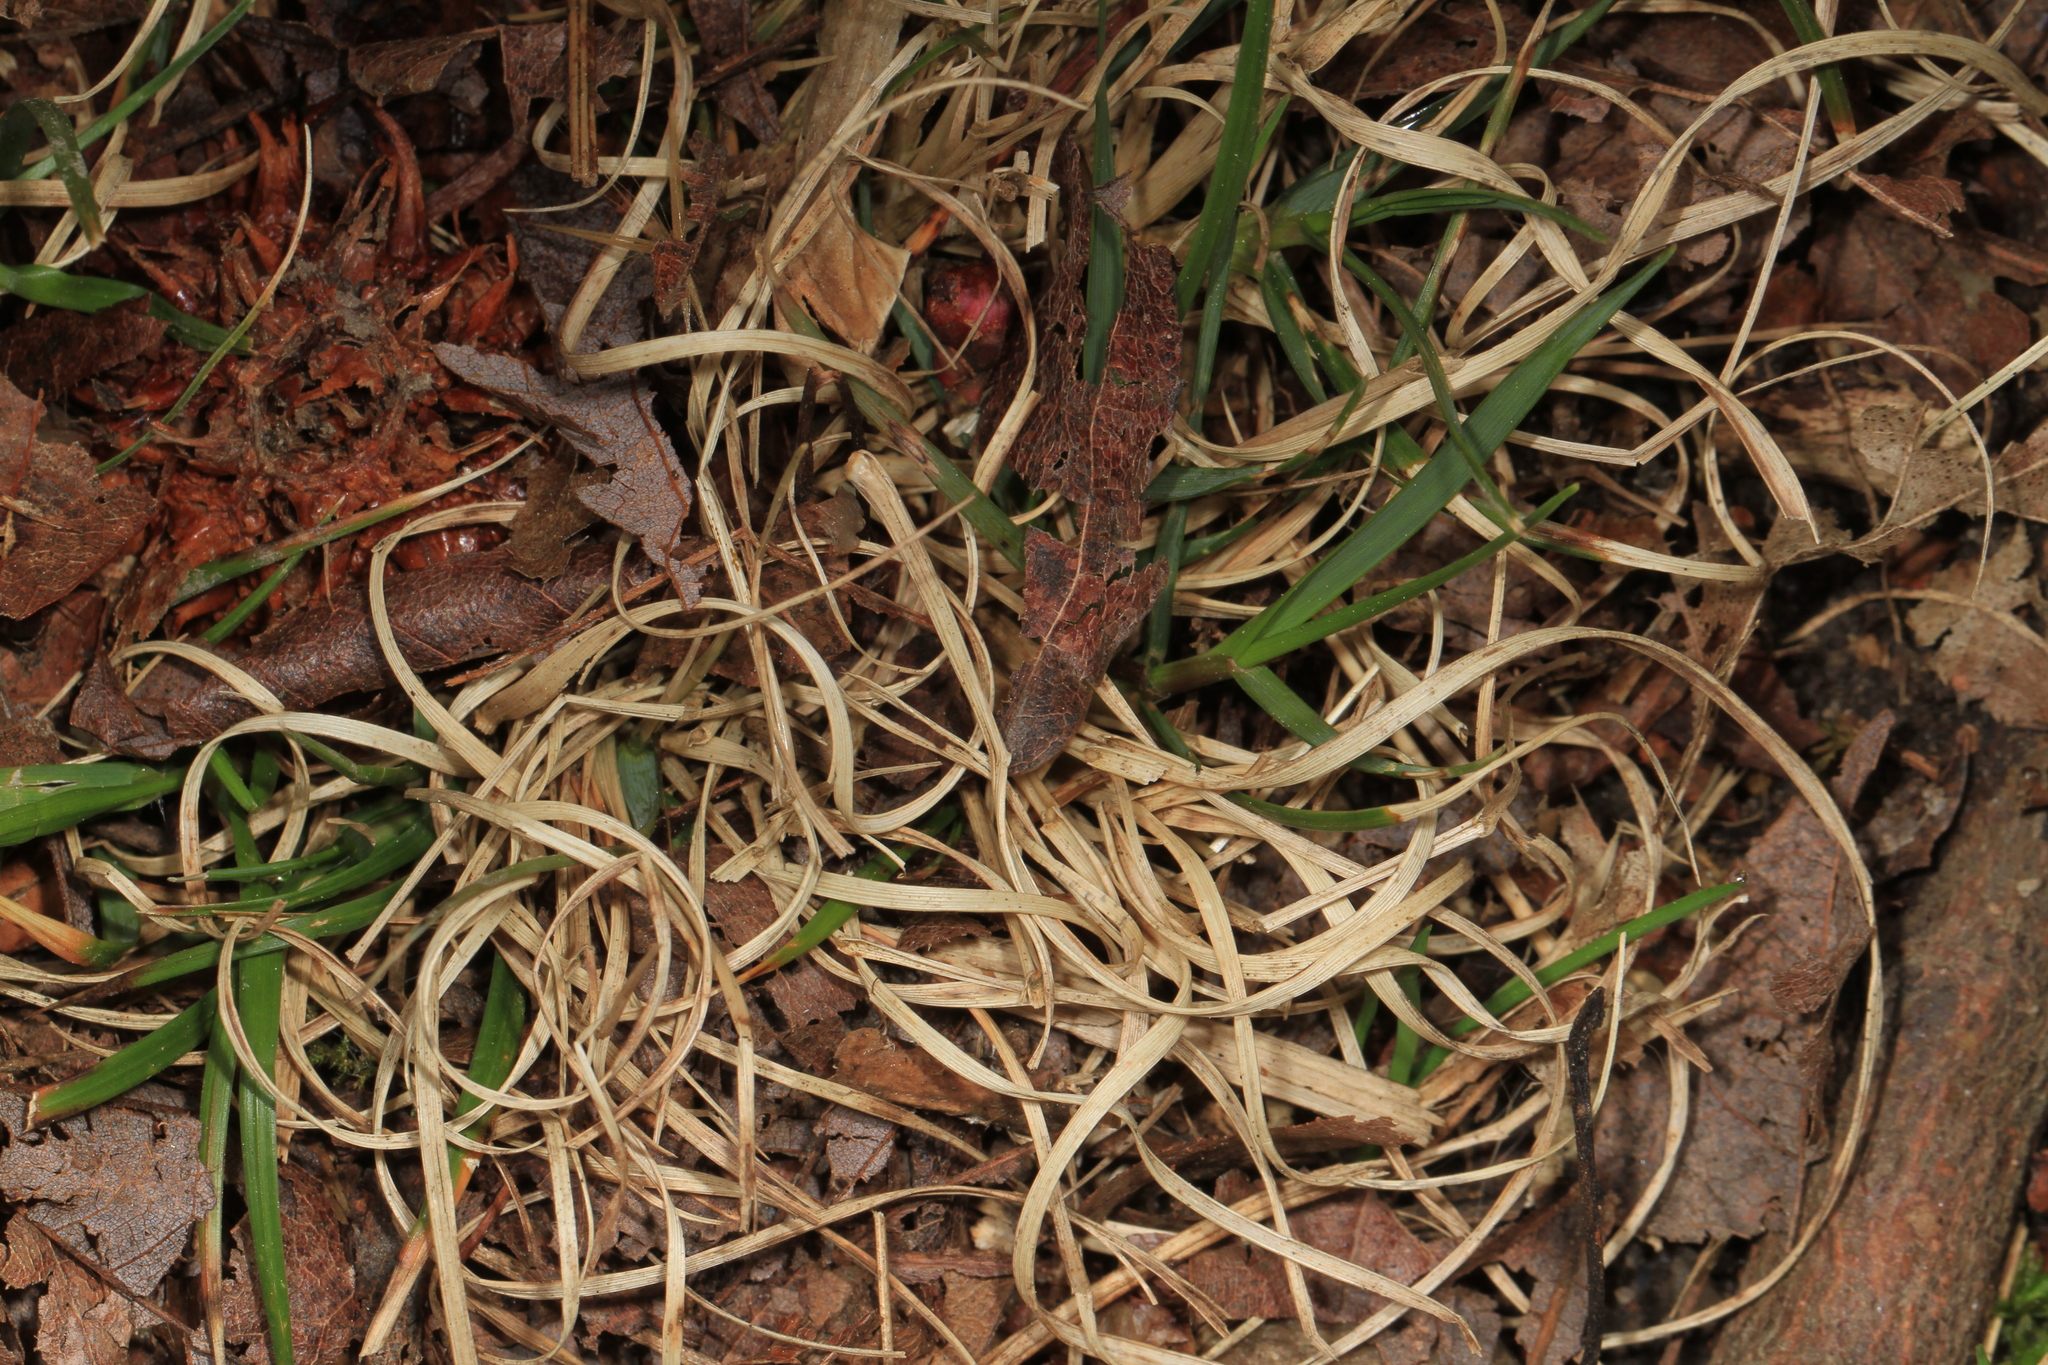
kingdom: Plantae
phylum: Tracheophyta
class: Liliopsida
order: Poales
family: Poaceae
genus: Danthonia
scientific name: Danthonia spicata
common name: Common wild oatgrass
